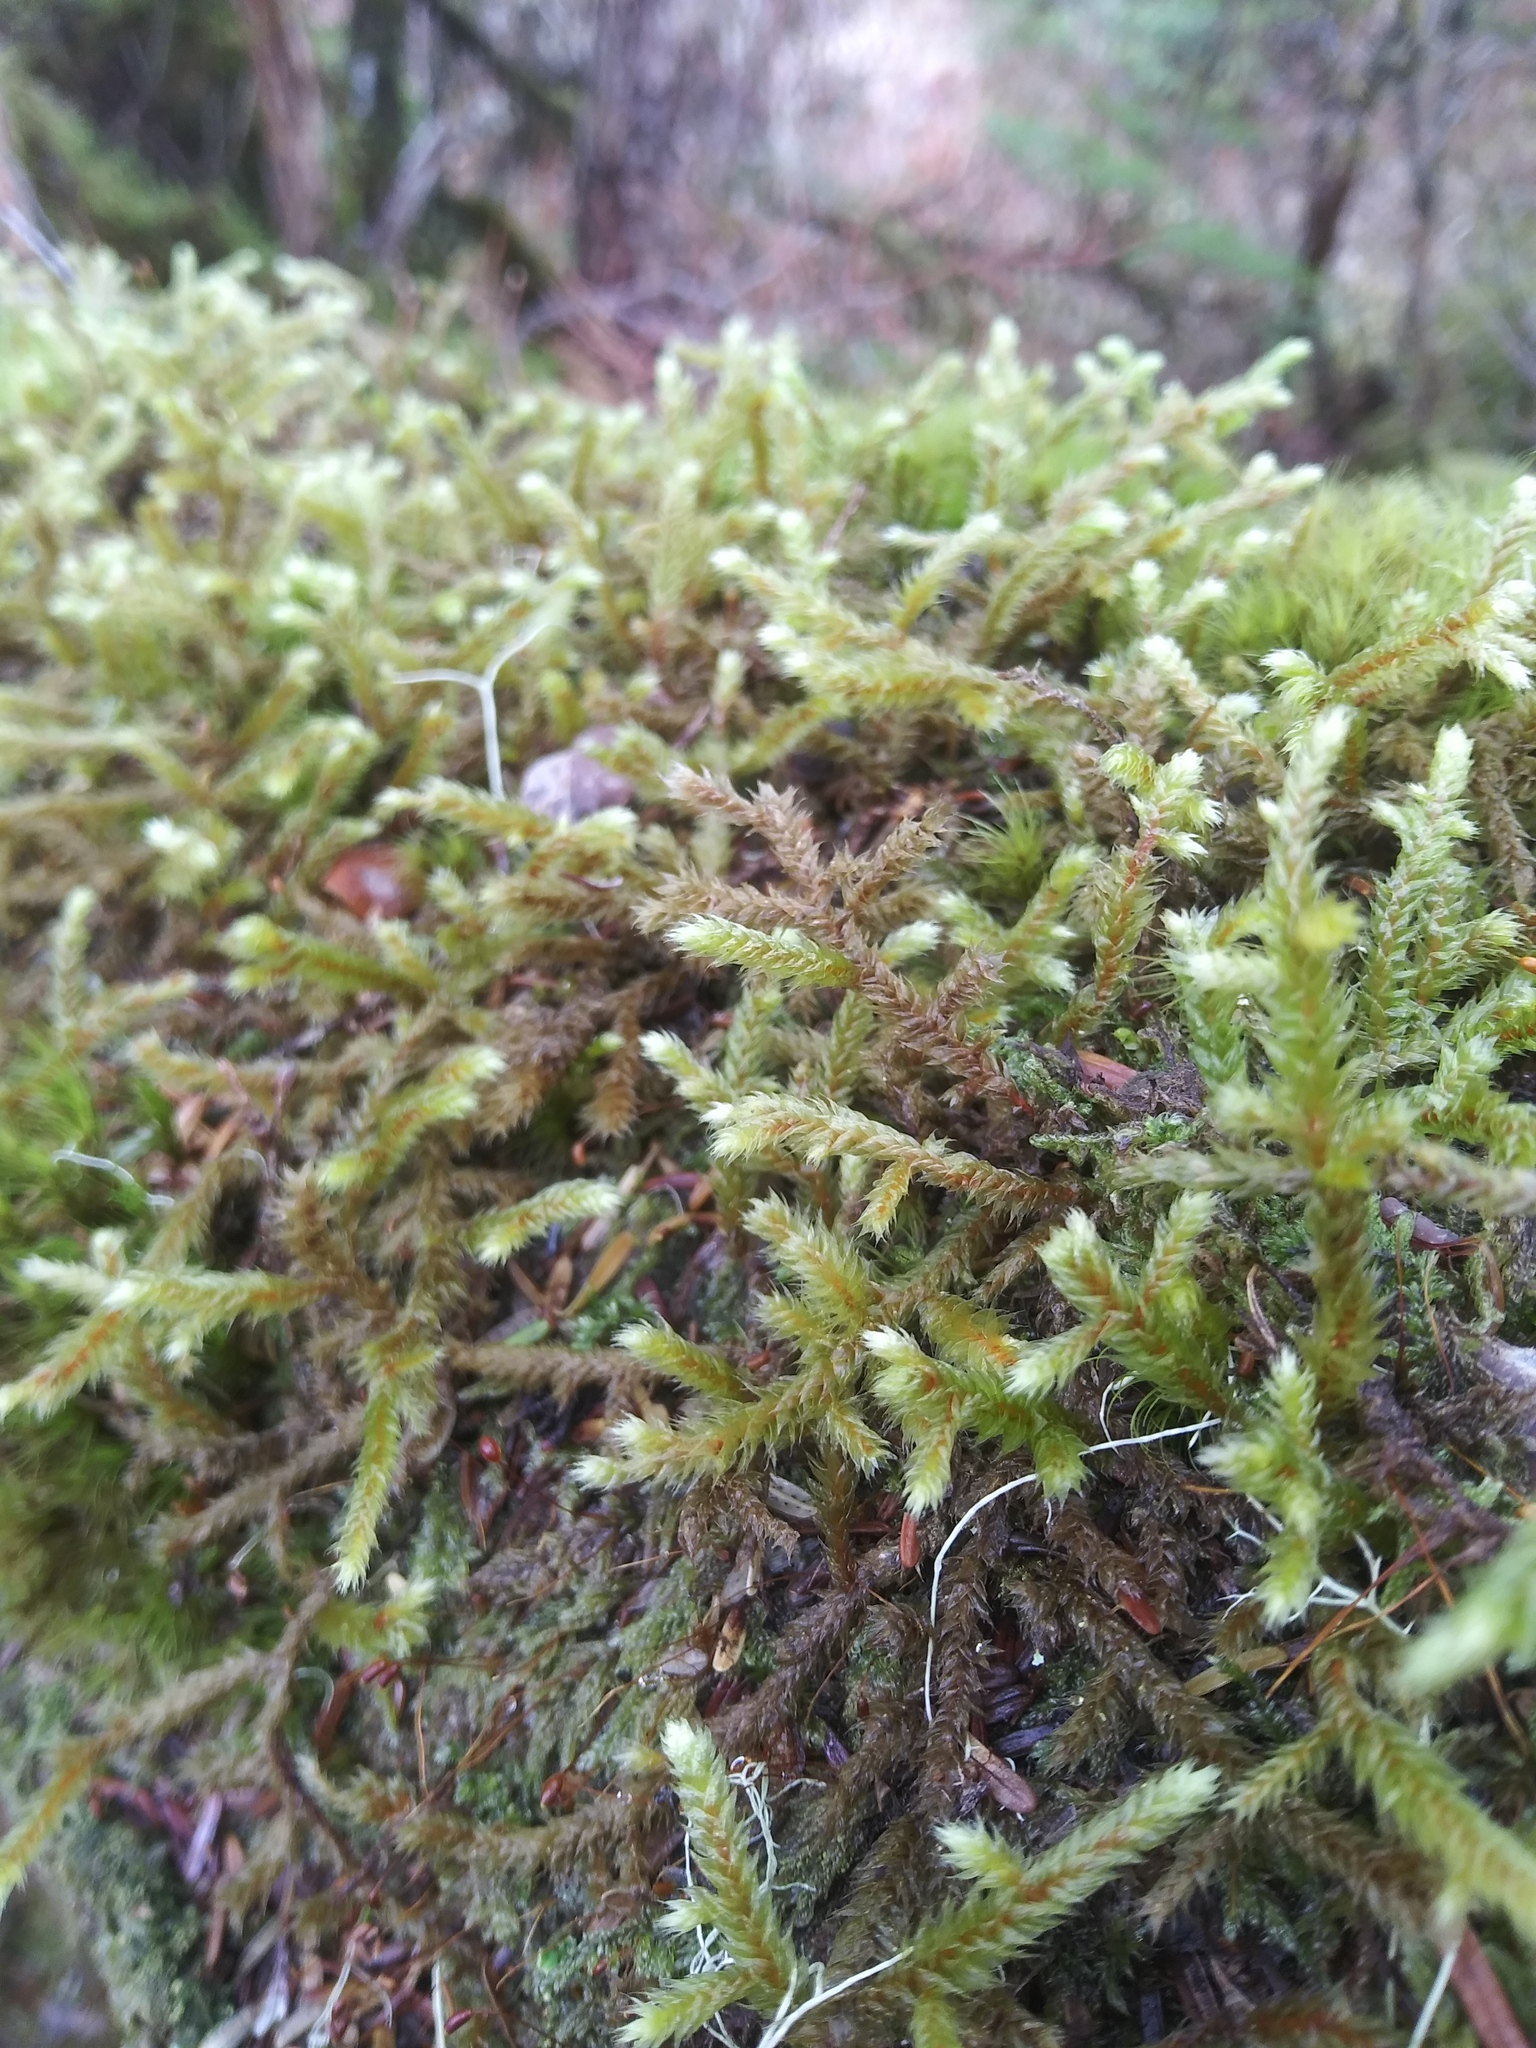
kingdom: Plantae
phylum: Bryophyta
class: Bryopsida
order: Hypnales
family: Antitrichiaceae
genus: Antitrichia
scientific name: Antitrichia curtipendula
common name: Pendulous wing-moss
